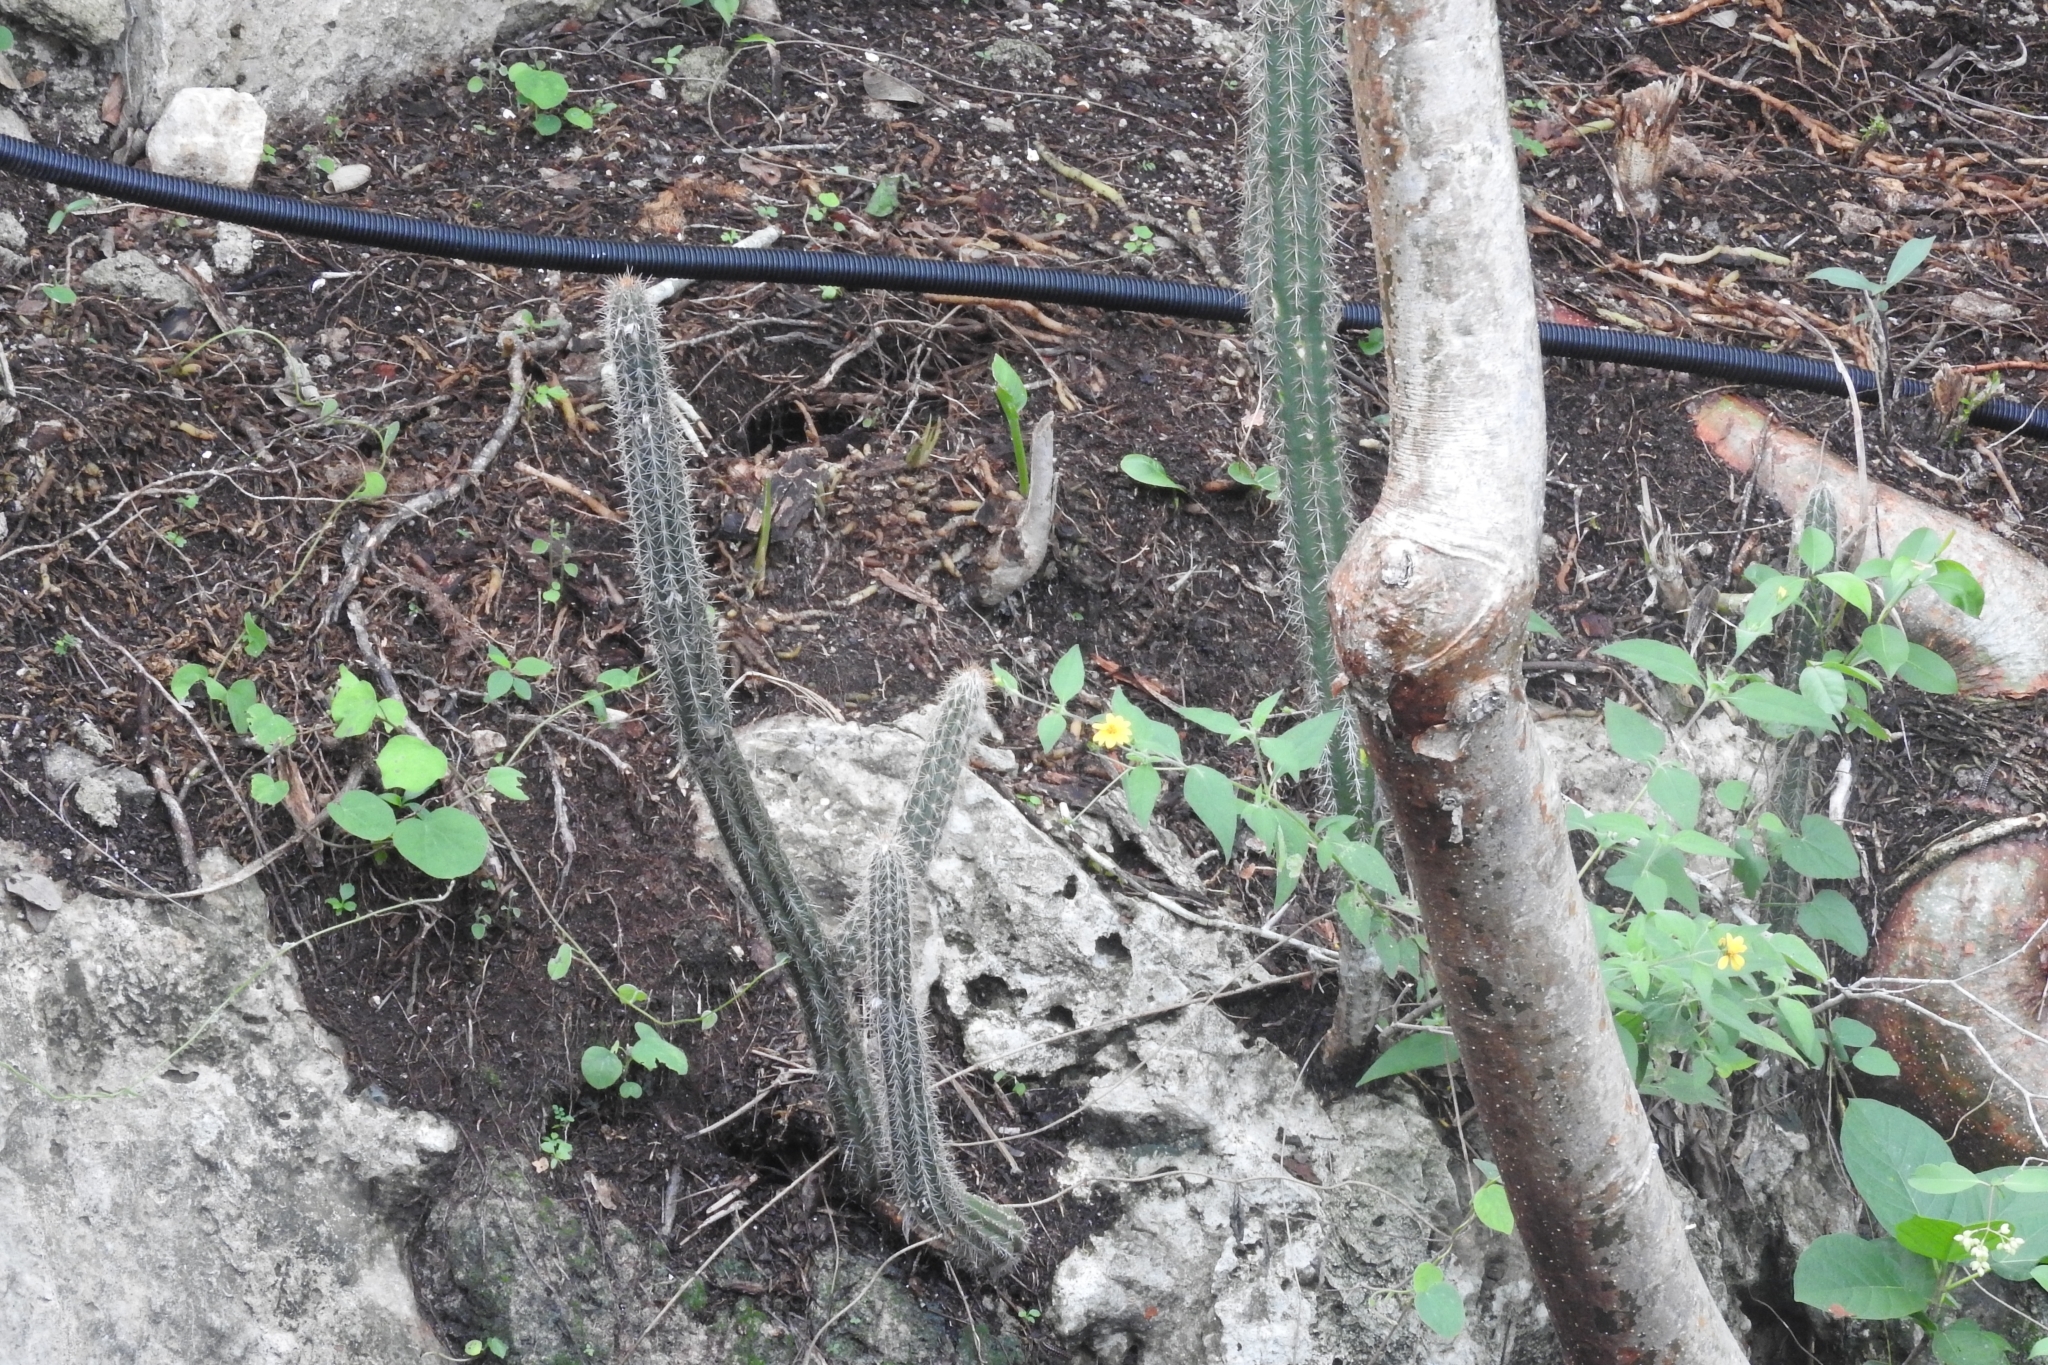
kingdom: Plantae
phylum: Tracheophyta
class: Magnoliopsida
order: Caryophyllales
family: Cactaceae
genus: Pilosocereus
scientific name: Pilosocereus gaumeri
